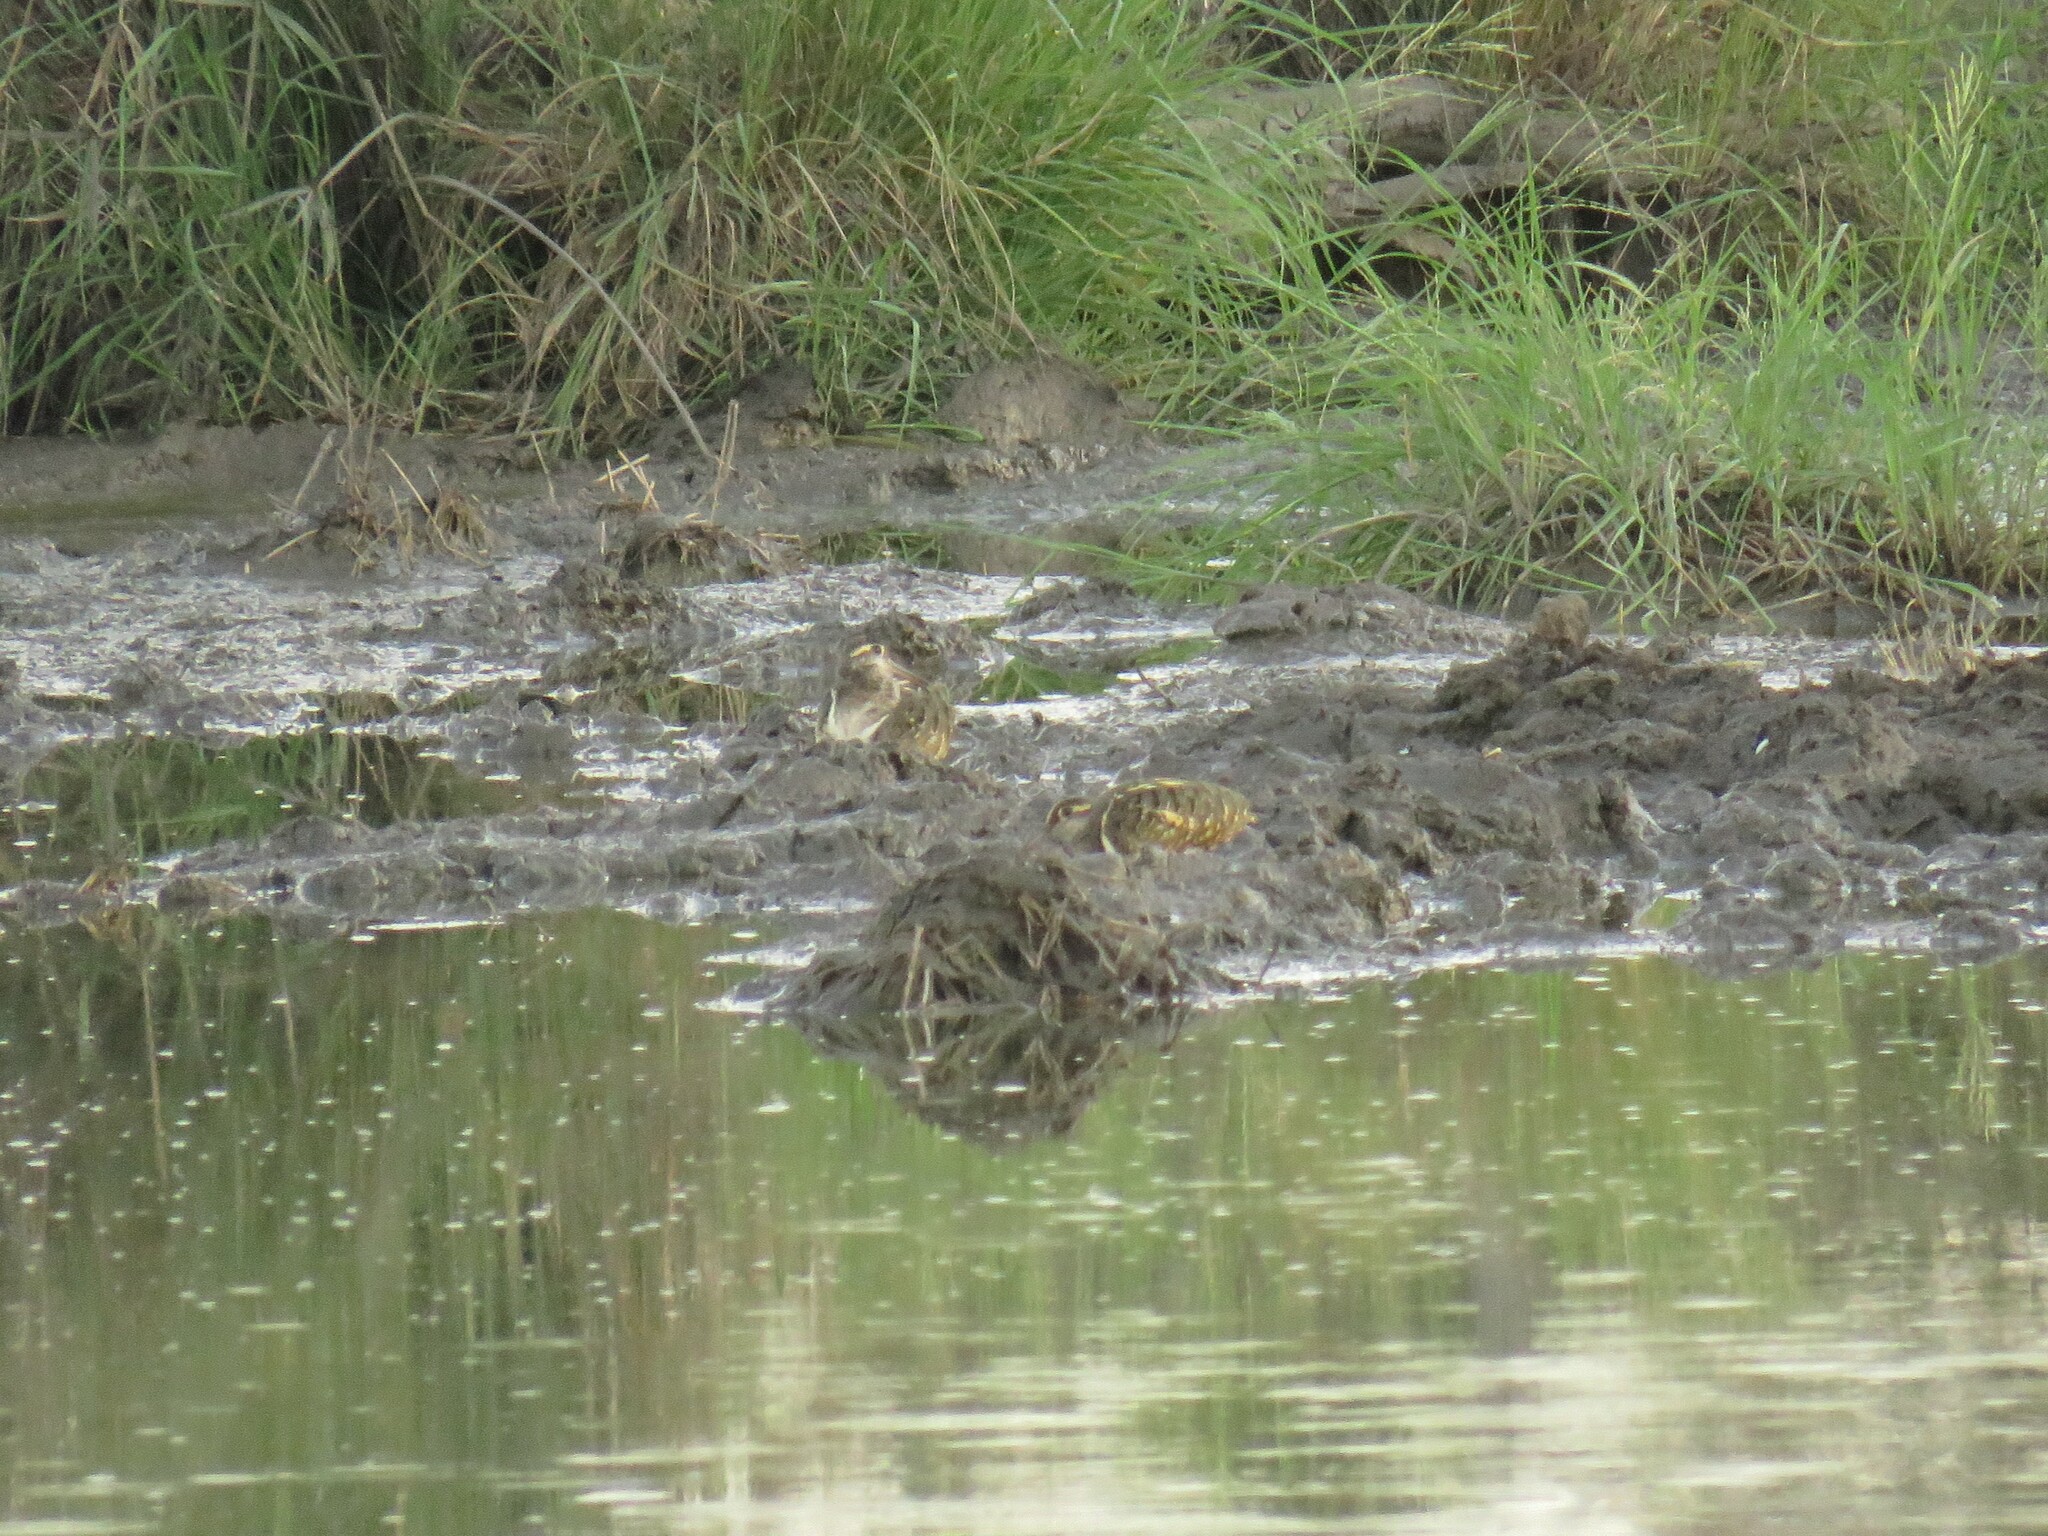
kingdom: Animalia
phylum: Chordata
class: Aves
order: Charadriiformes
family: Rostratulidae
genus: Rostratula
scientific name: Rostratula benghalensis
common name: Greater painted-snipe
